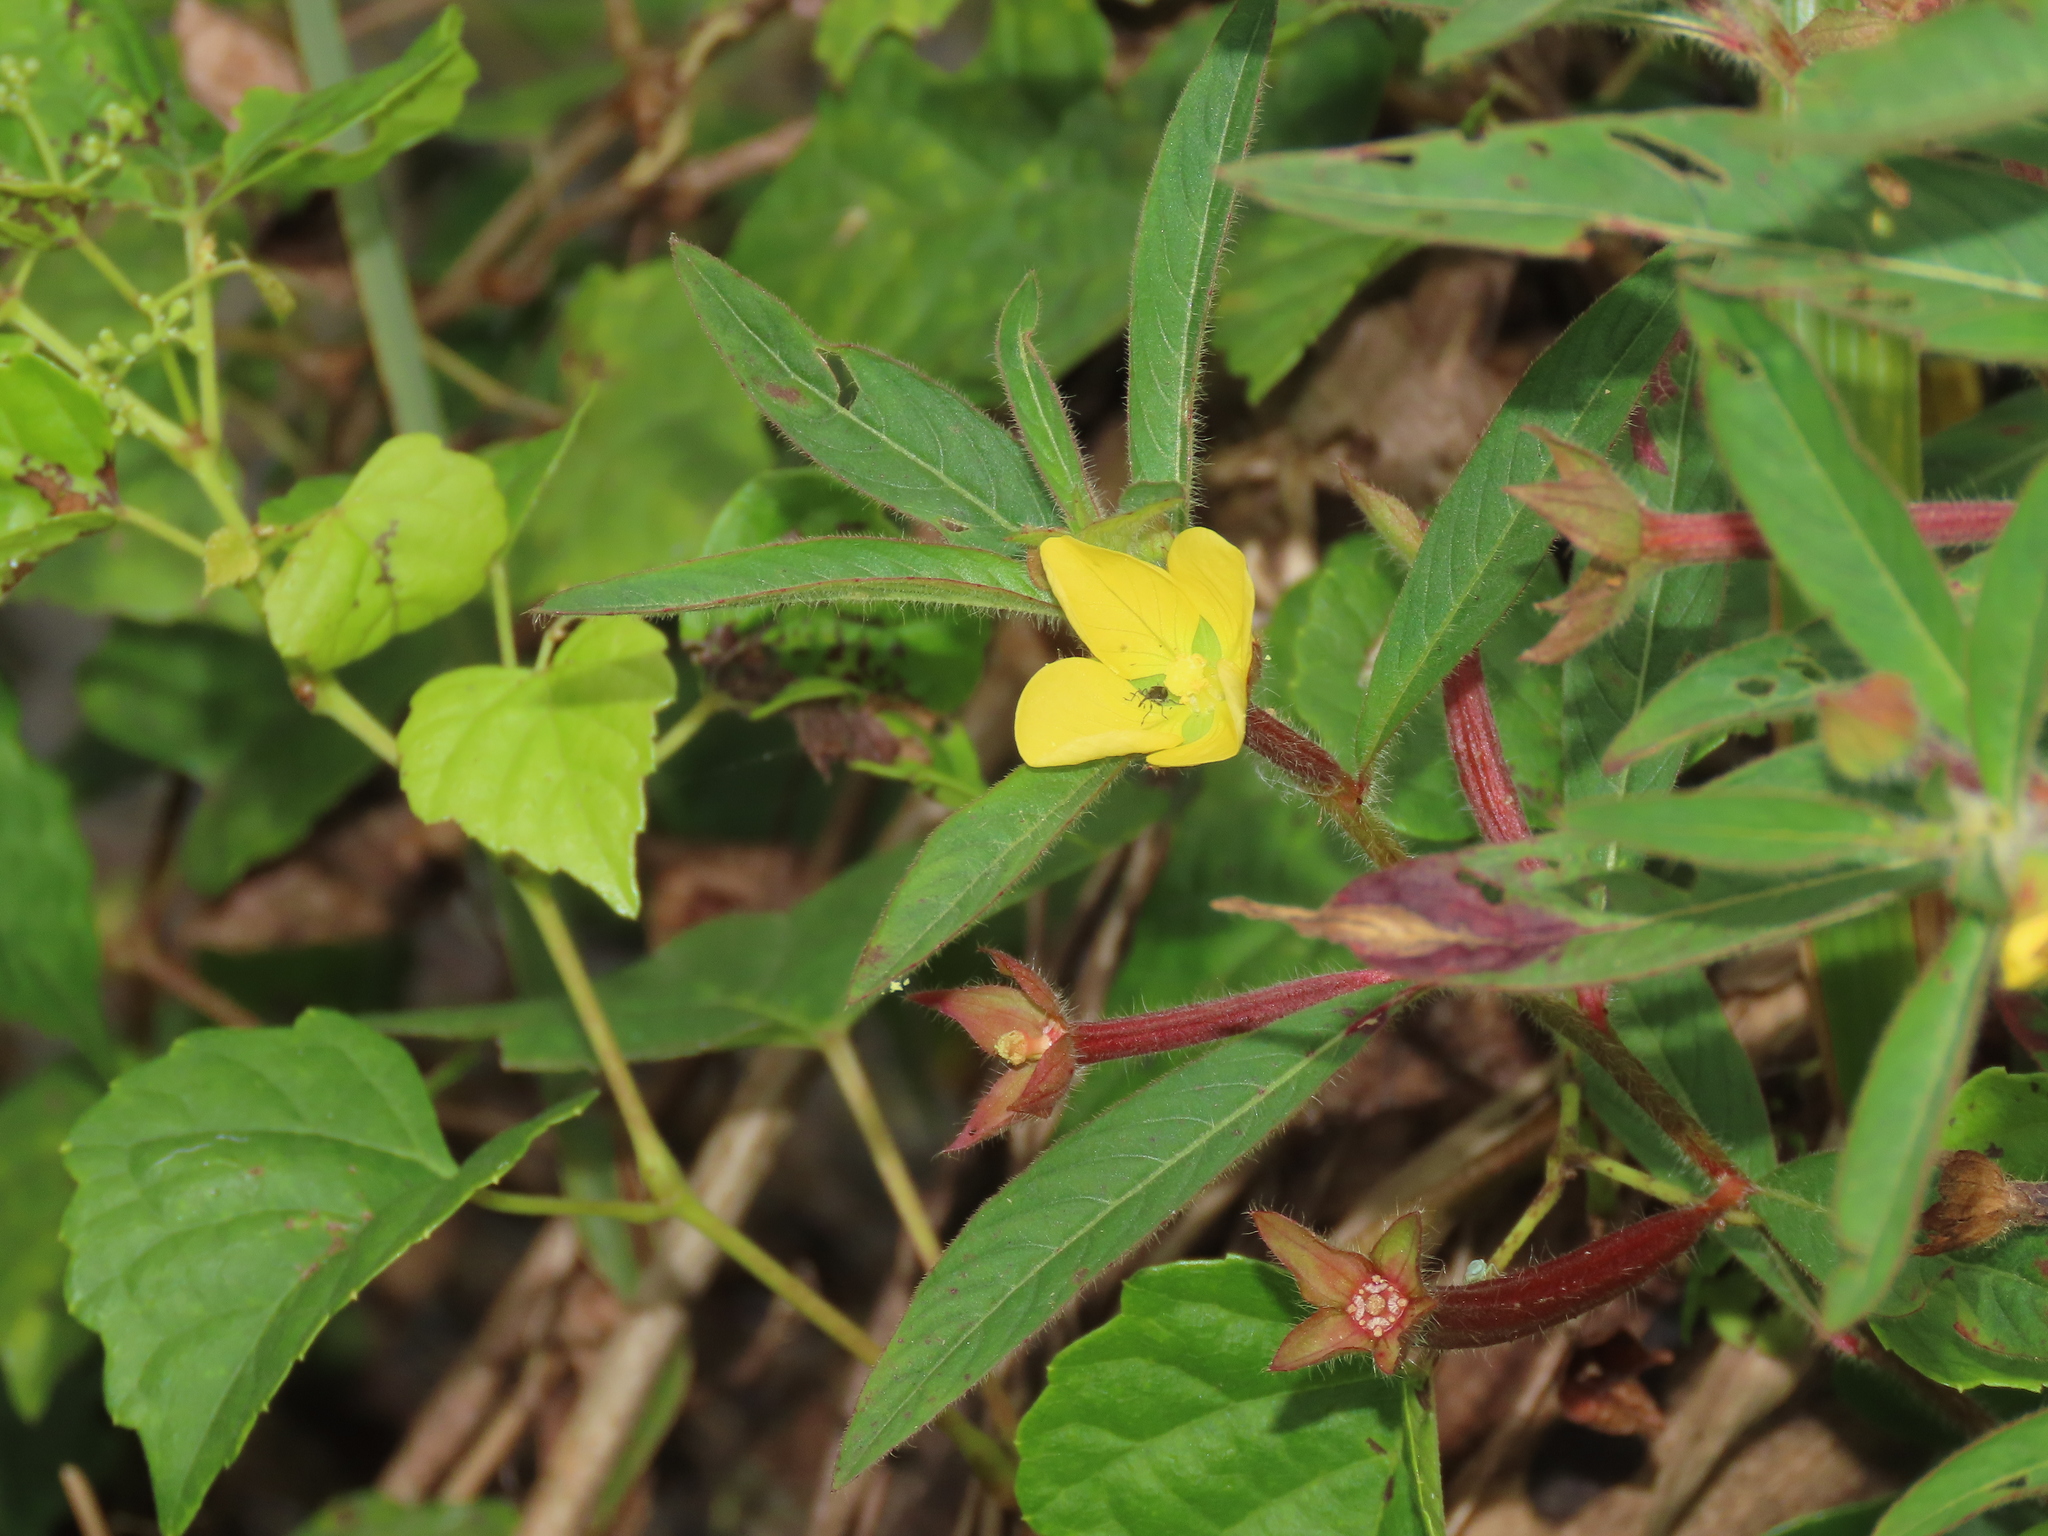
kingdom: Plantae
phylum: Tracheophyta
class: Magnoliopsida
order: Myrtales
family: Onagraceae
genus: Ludwigia
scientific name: Ludwigia octovalvis
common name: Water-primrose
